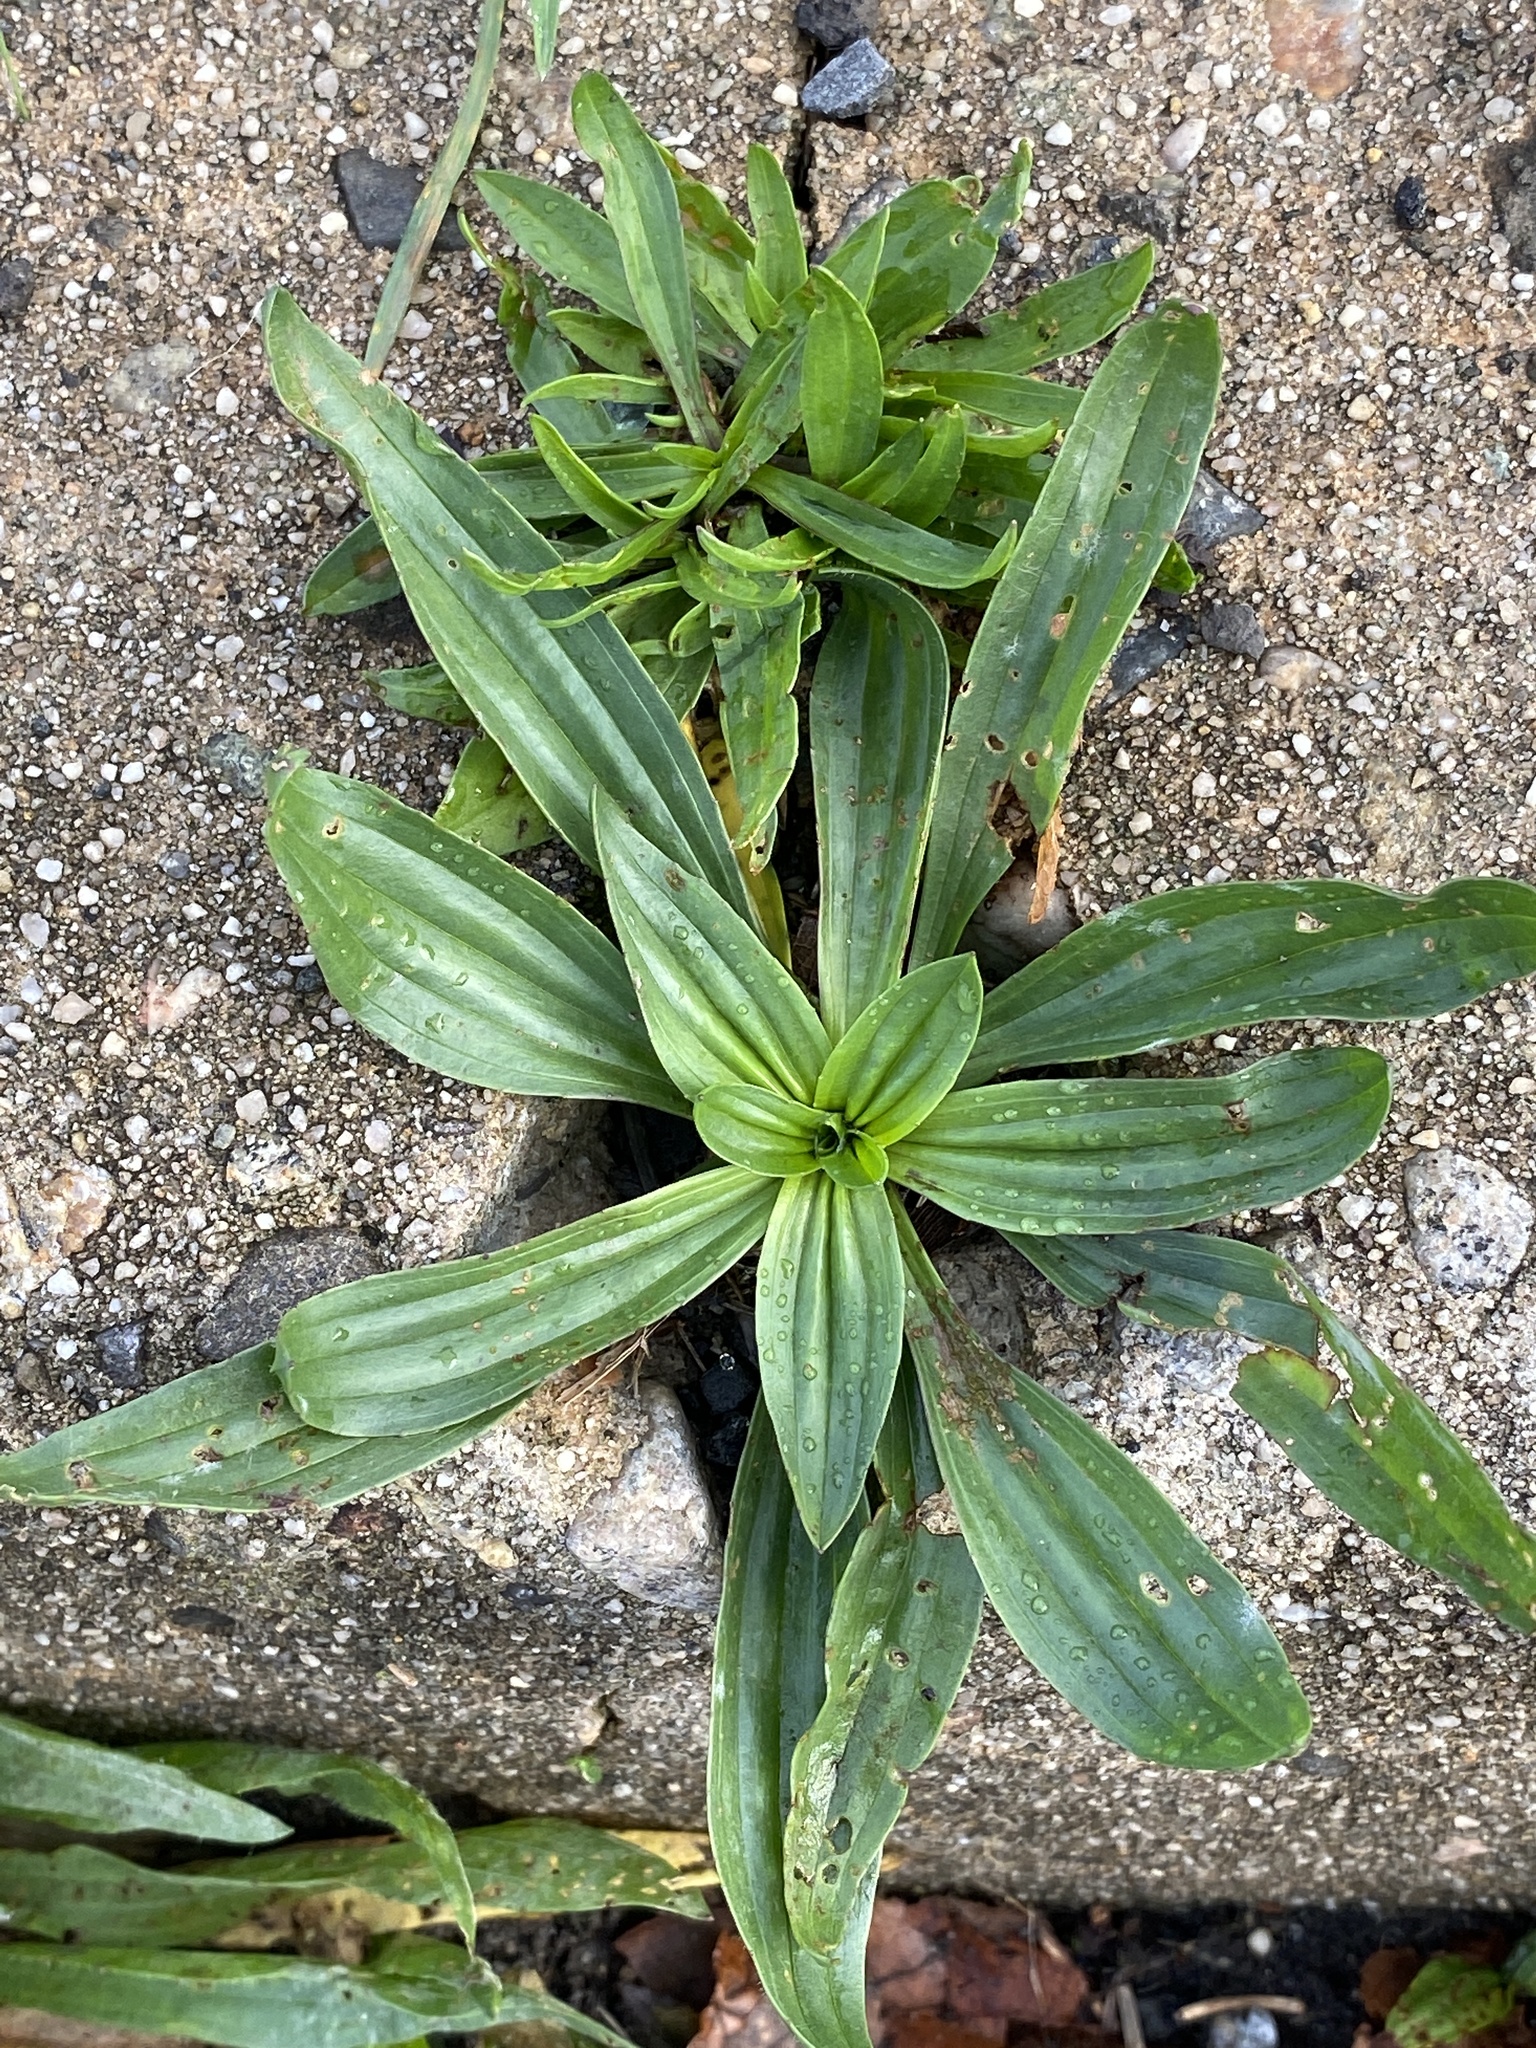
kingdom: Plantae
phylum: Tracheophyta
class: Magnoliopsida
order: Lamiales
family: Plantaginaceae
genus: Plantago
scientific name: Plantago lanceolata
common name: Ribwort plantain
